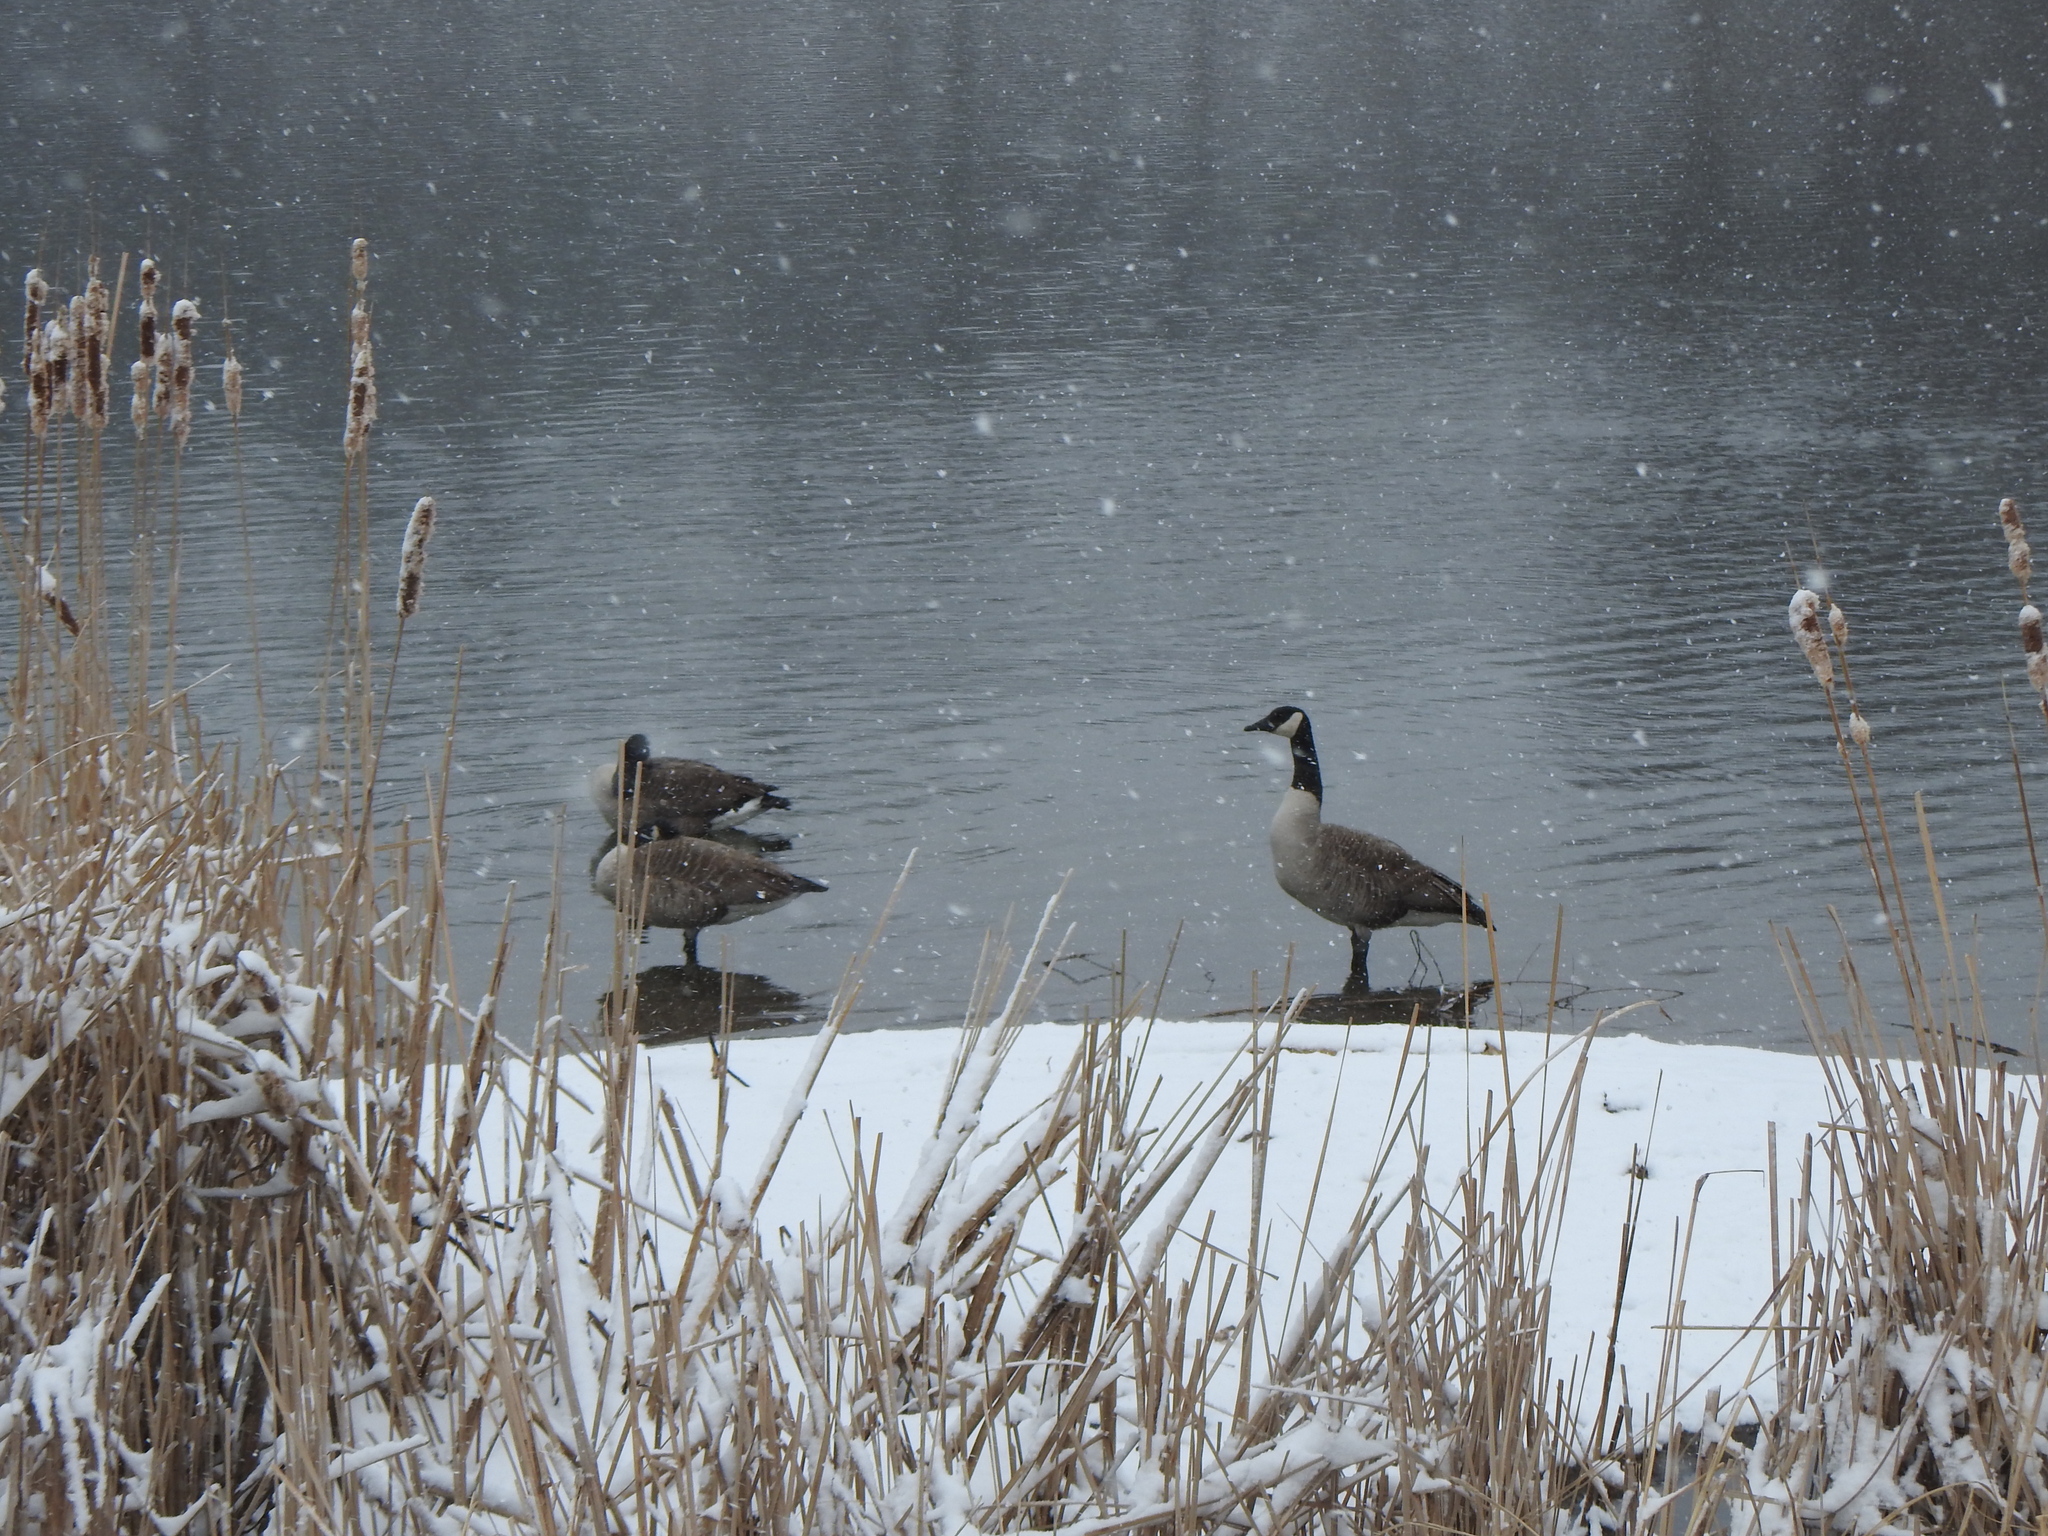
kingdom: Animalia
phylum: Chordata
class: Aves
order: Anseriformes
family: Anatidae
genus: Branta
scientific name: Branta canadensis
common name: Canada goose
